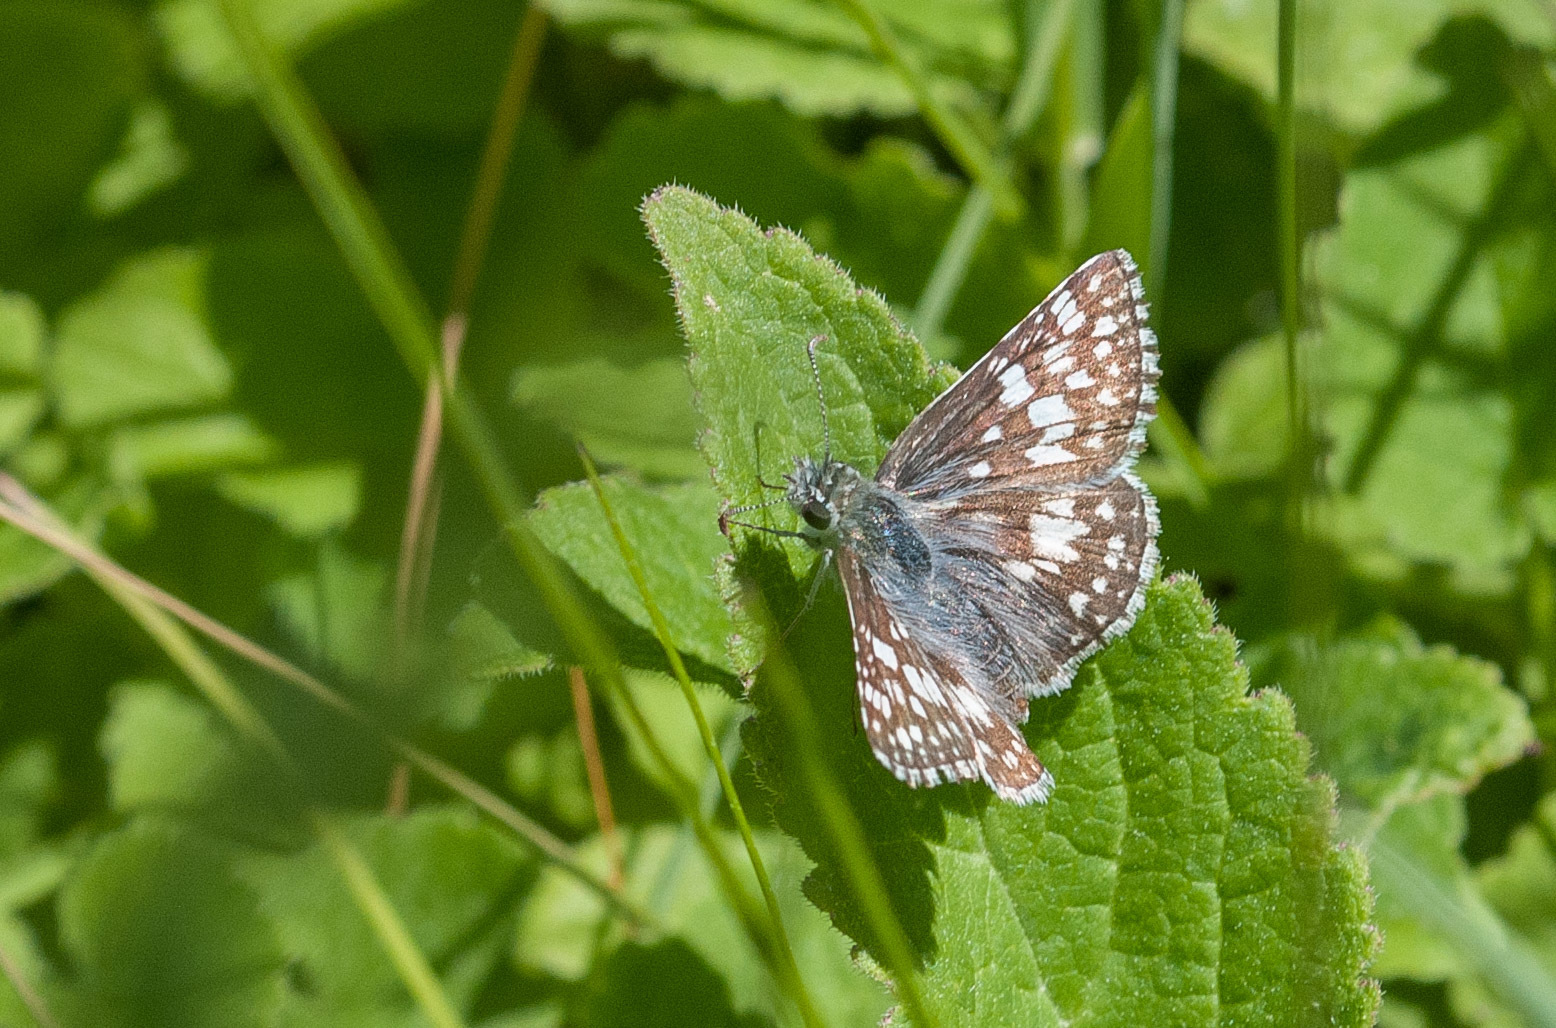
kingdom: Animalia
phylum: Arthropoda
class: Insecta
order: Lepidoptera
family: Hesperiidae
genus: Burnsius
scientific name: Burnsius communis
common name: Common checkered-skipper
